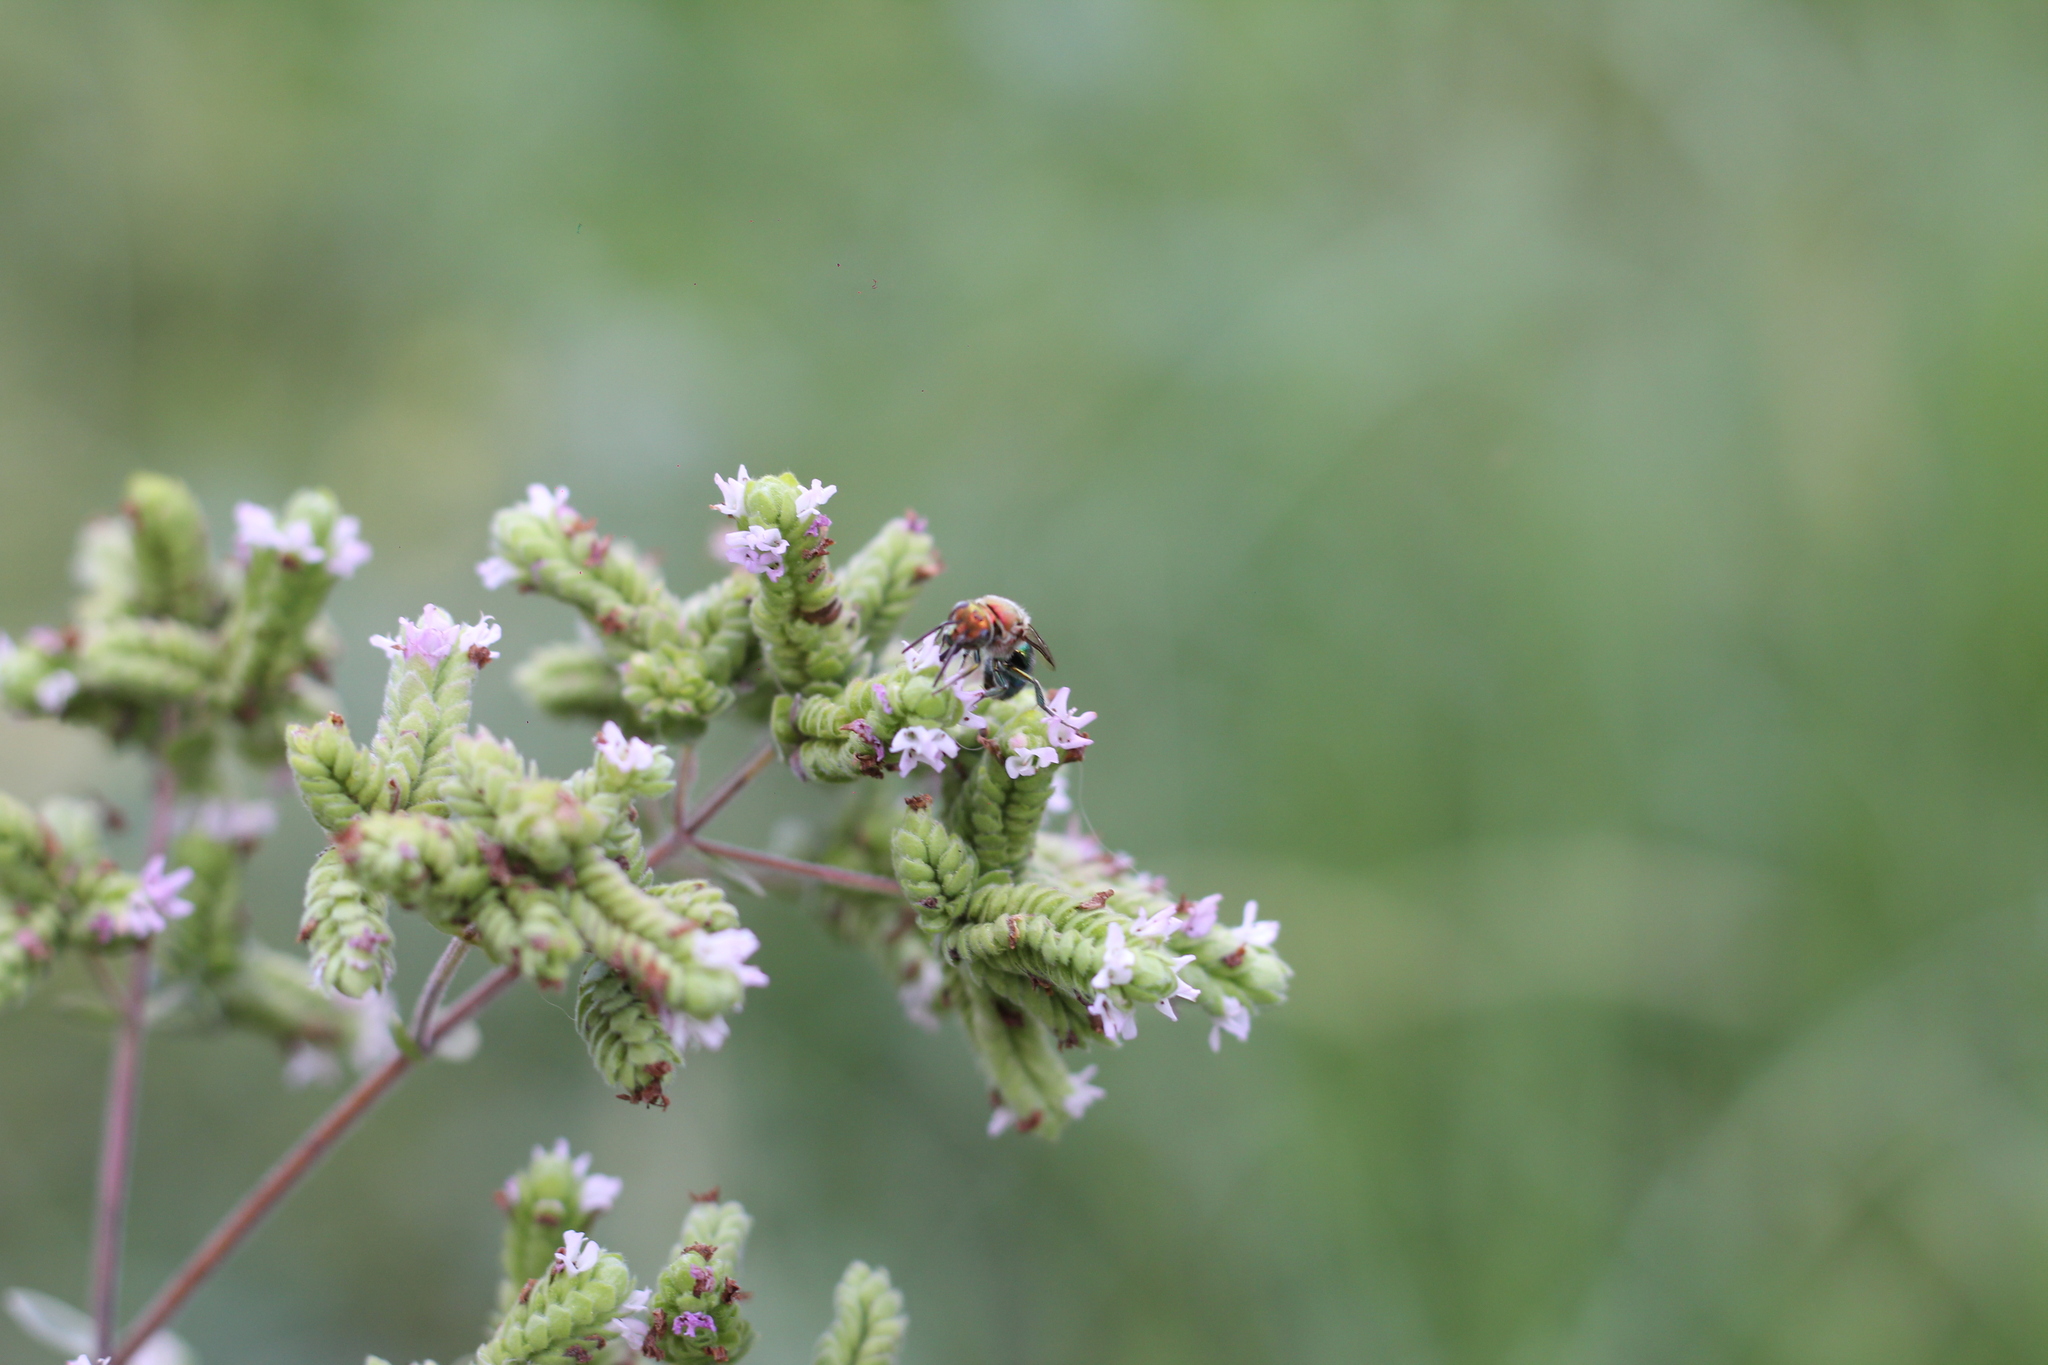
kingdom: Animalia
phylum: Arthropoda
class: Insecta
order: Hymenoptera
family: Halictidae
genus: Augochloropsis
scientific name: Augochloropsis tupacamaru
